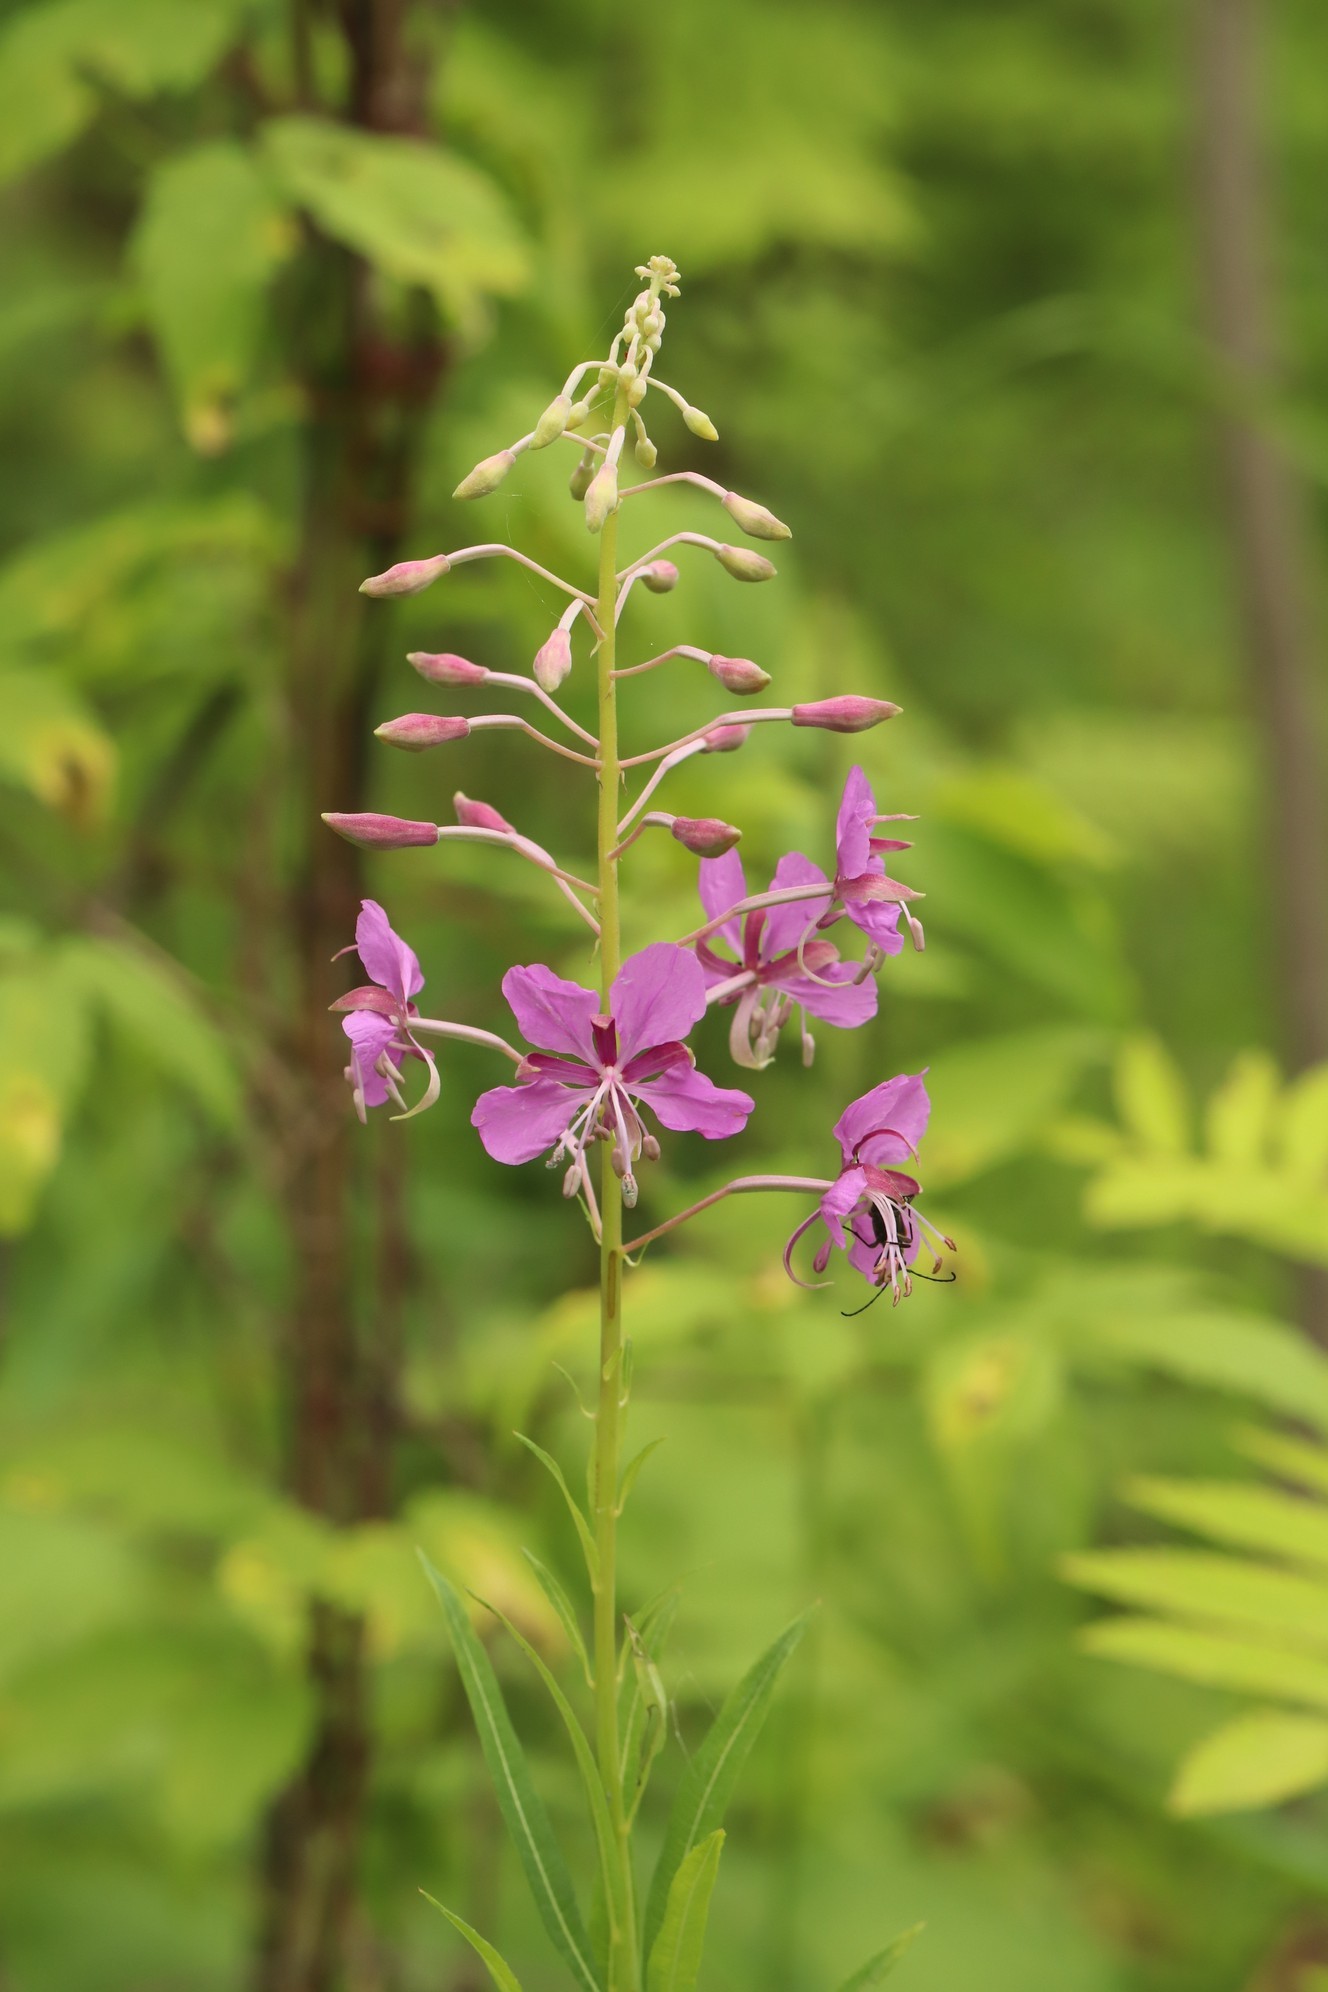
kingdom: Plantae
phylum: Tracheophyta
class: Magnoliopsida
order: Myrtales
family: Onagraceae
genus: Chamaenerion
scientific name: Chamaenerion angustifolium
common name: Fireweed
